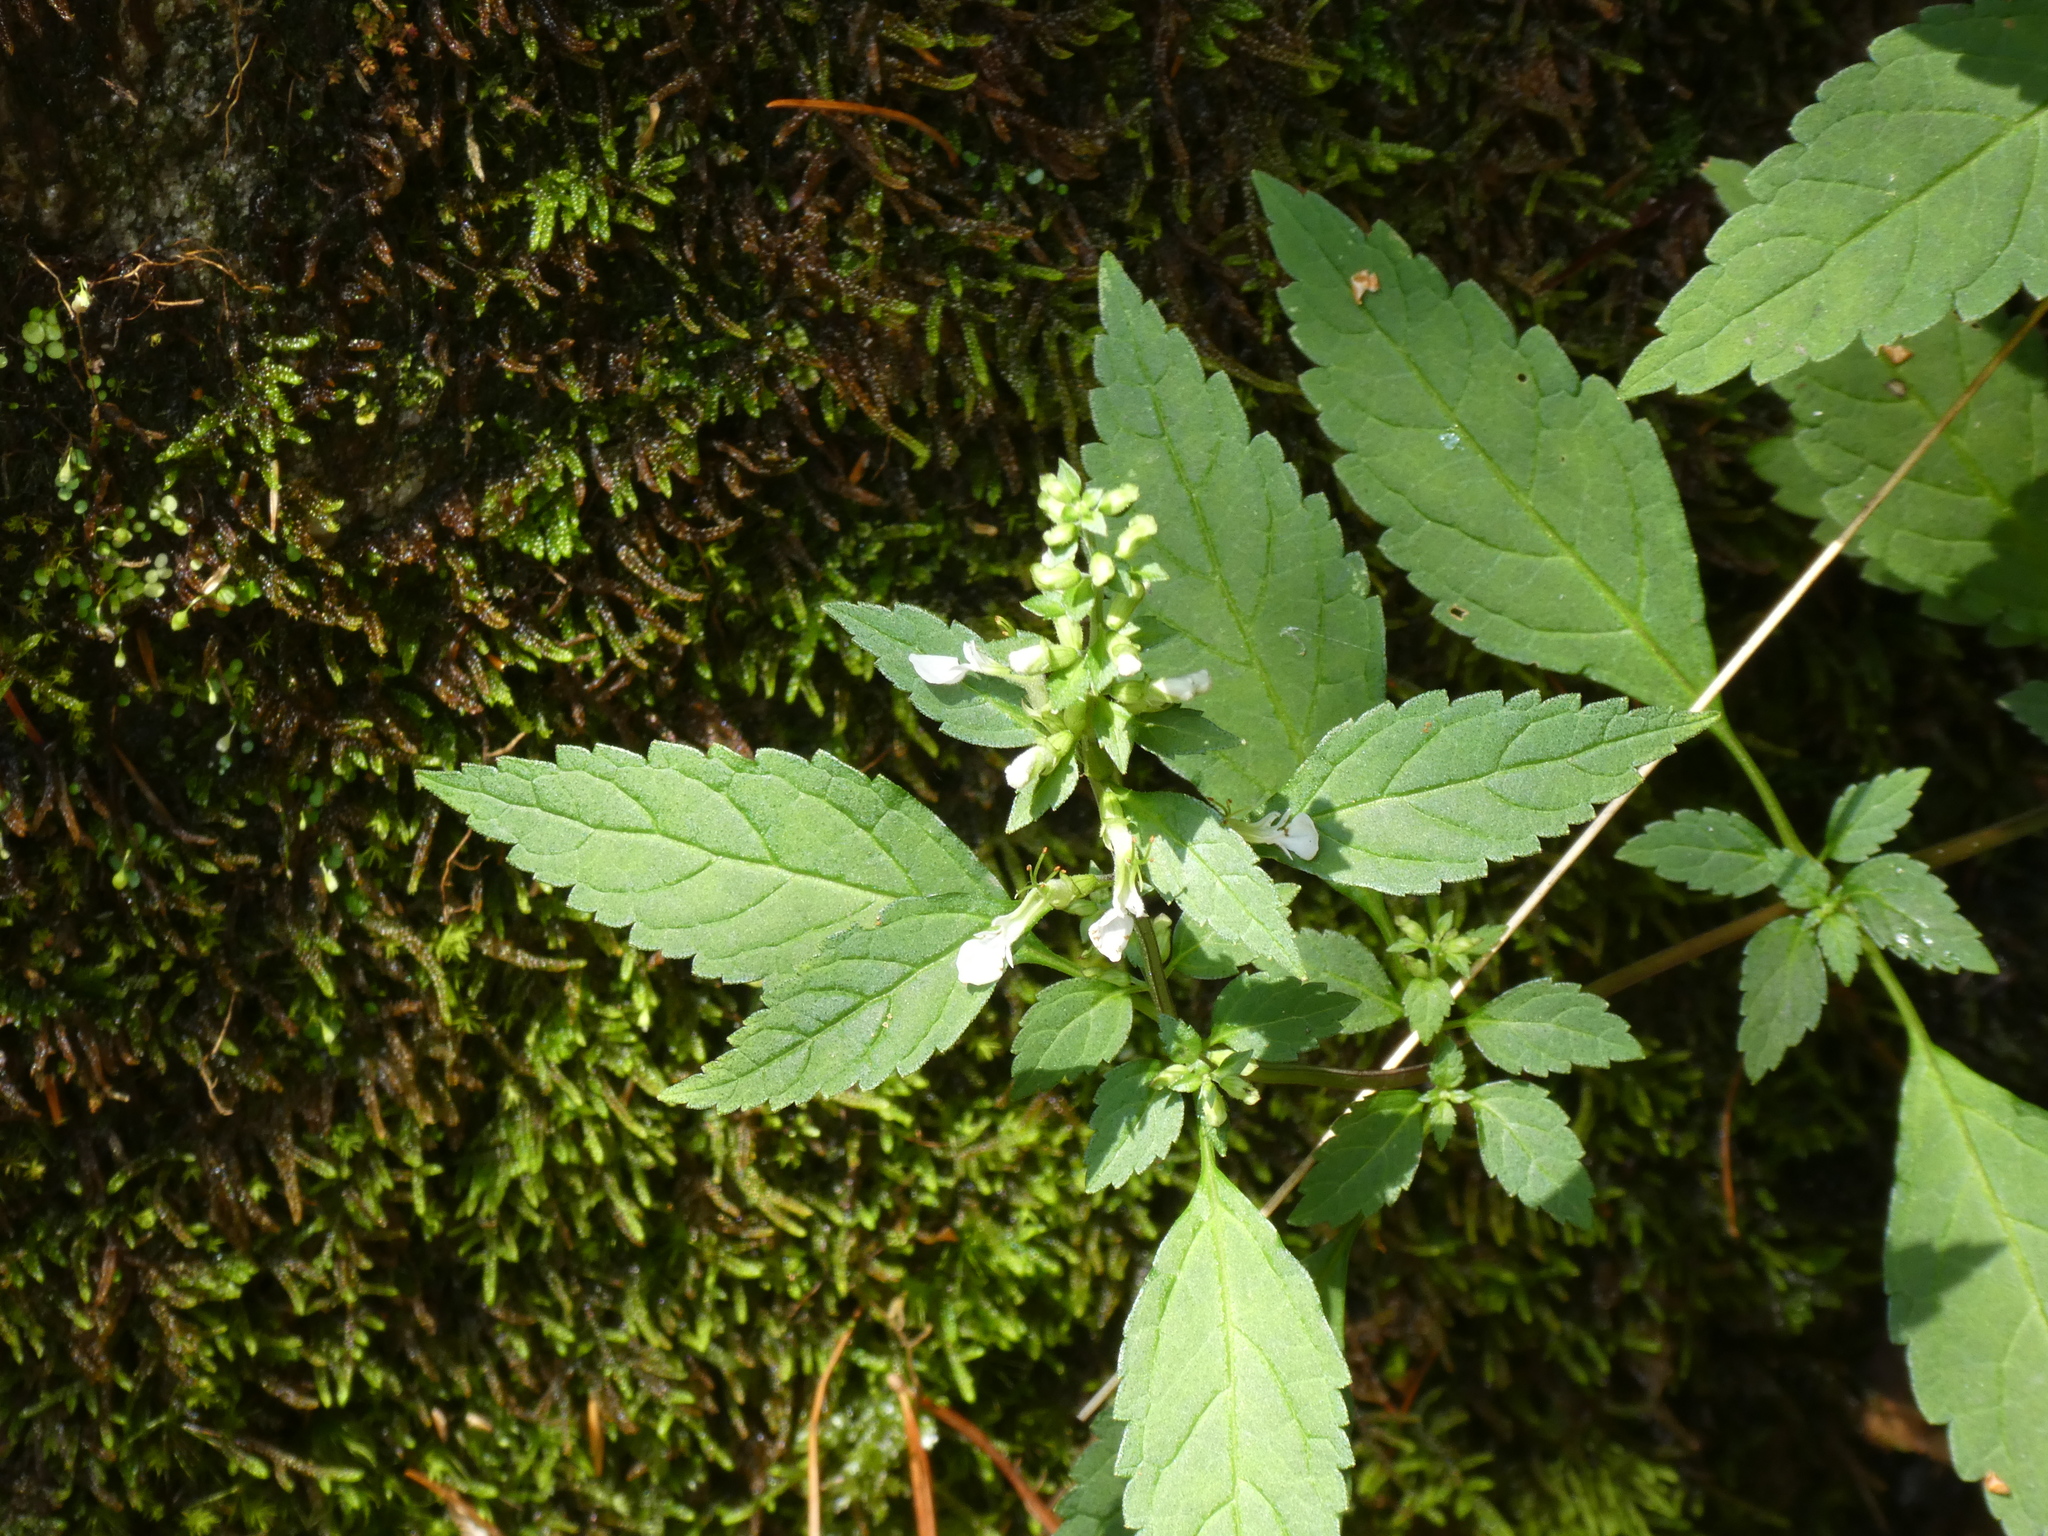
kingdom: Plantae
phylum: Tracheophyta
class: Magnoliopsida
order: Lamiales
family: Lamiaceae
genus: Teucrium
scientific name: Teucrium pernyi
